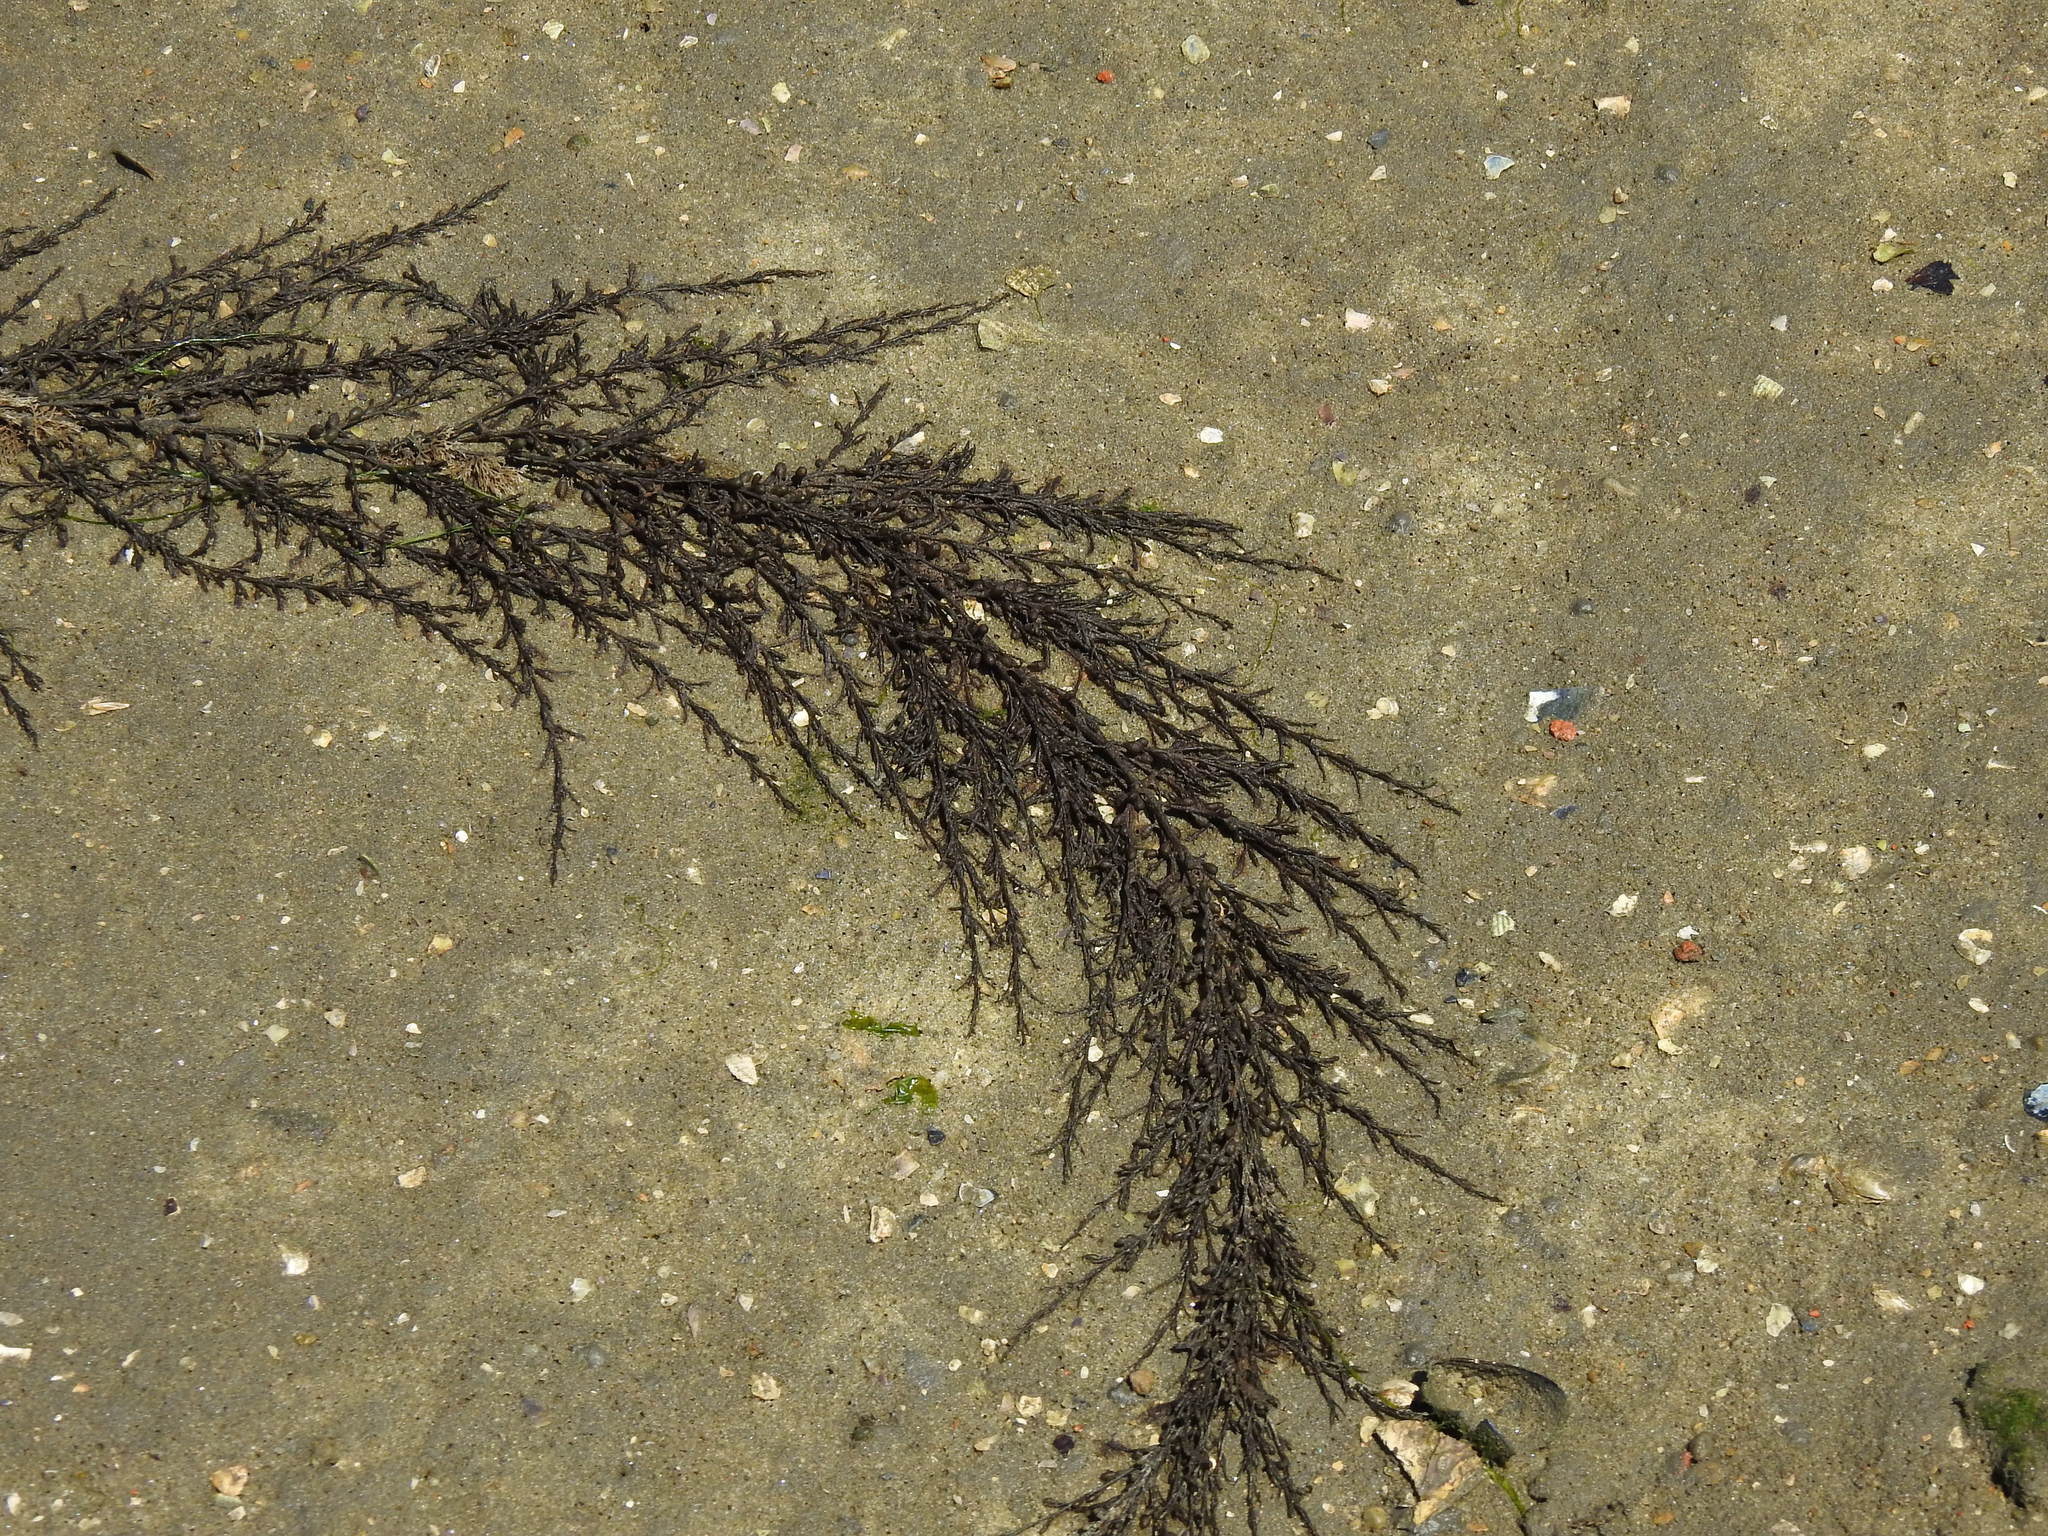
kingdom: Chromista
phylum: Ochrophyta
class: Phaeophyceae
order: Fucales
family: Sargassaceae
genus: Sargassum
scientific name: Sargassum muticum
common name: Japweed
